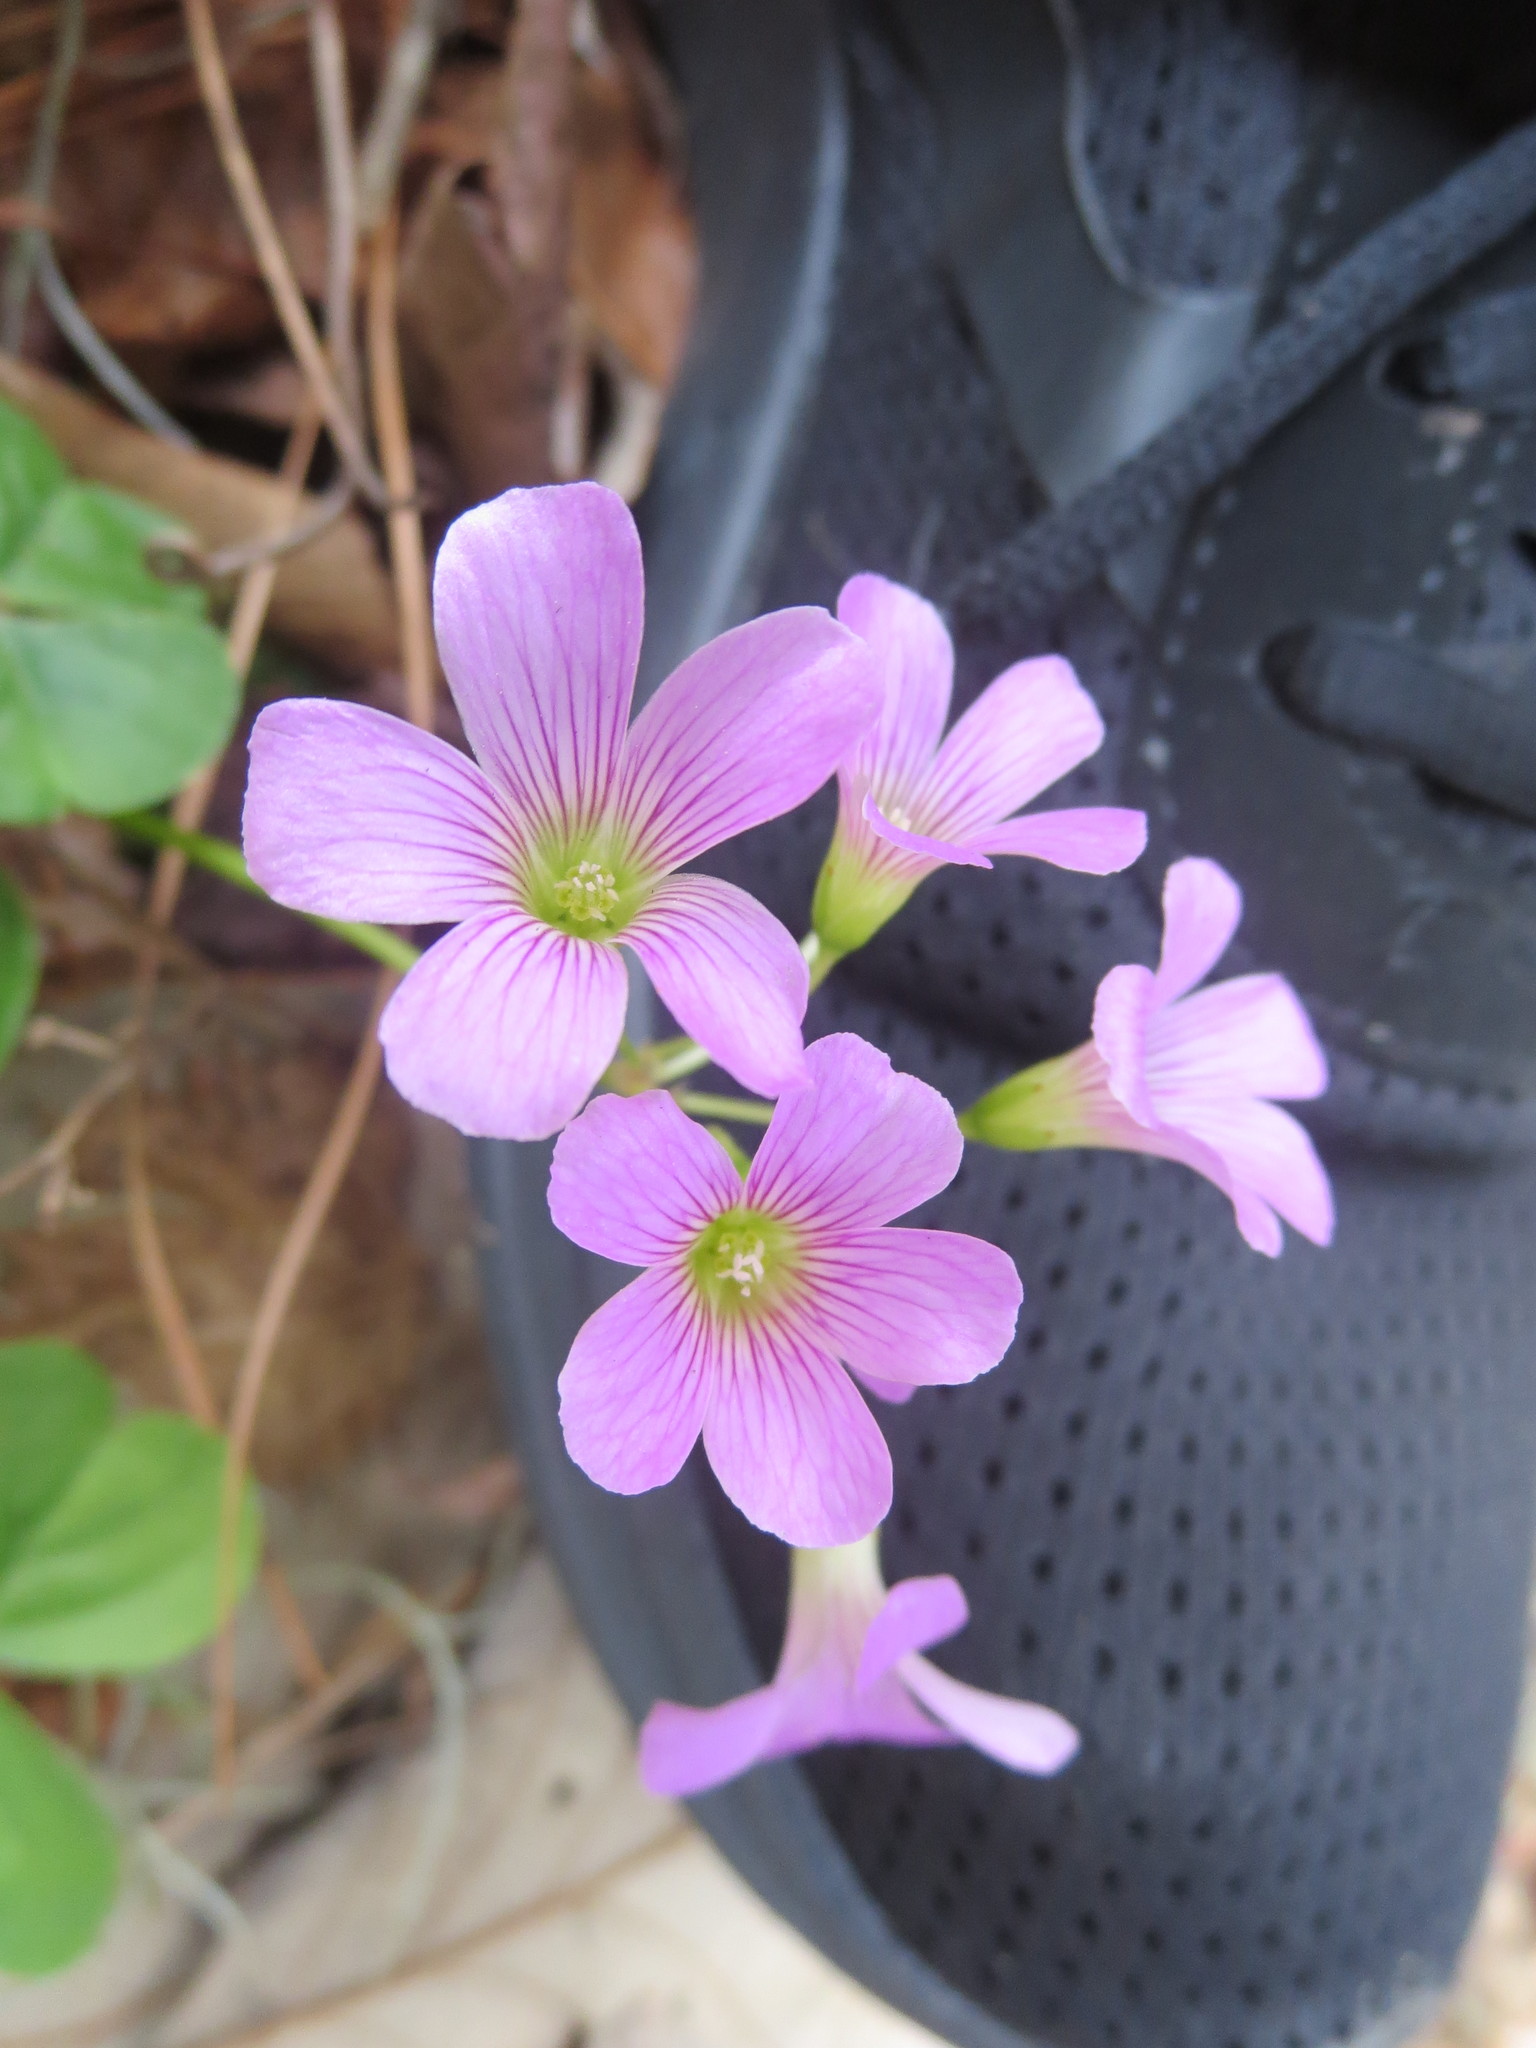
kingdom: Plantae
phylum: Tracheophyta
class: Magnoliopsida
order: Oxalidales
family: Oxalidaceae
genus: Oxalis
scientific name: Oxalis debilis
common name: Large-flowered pink-sorrel
